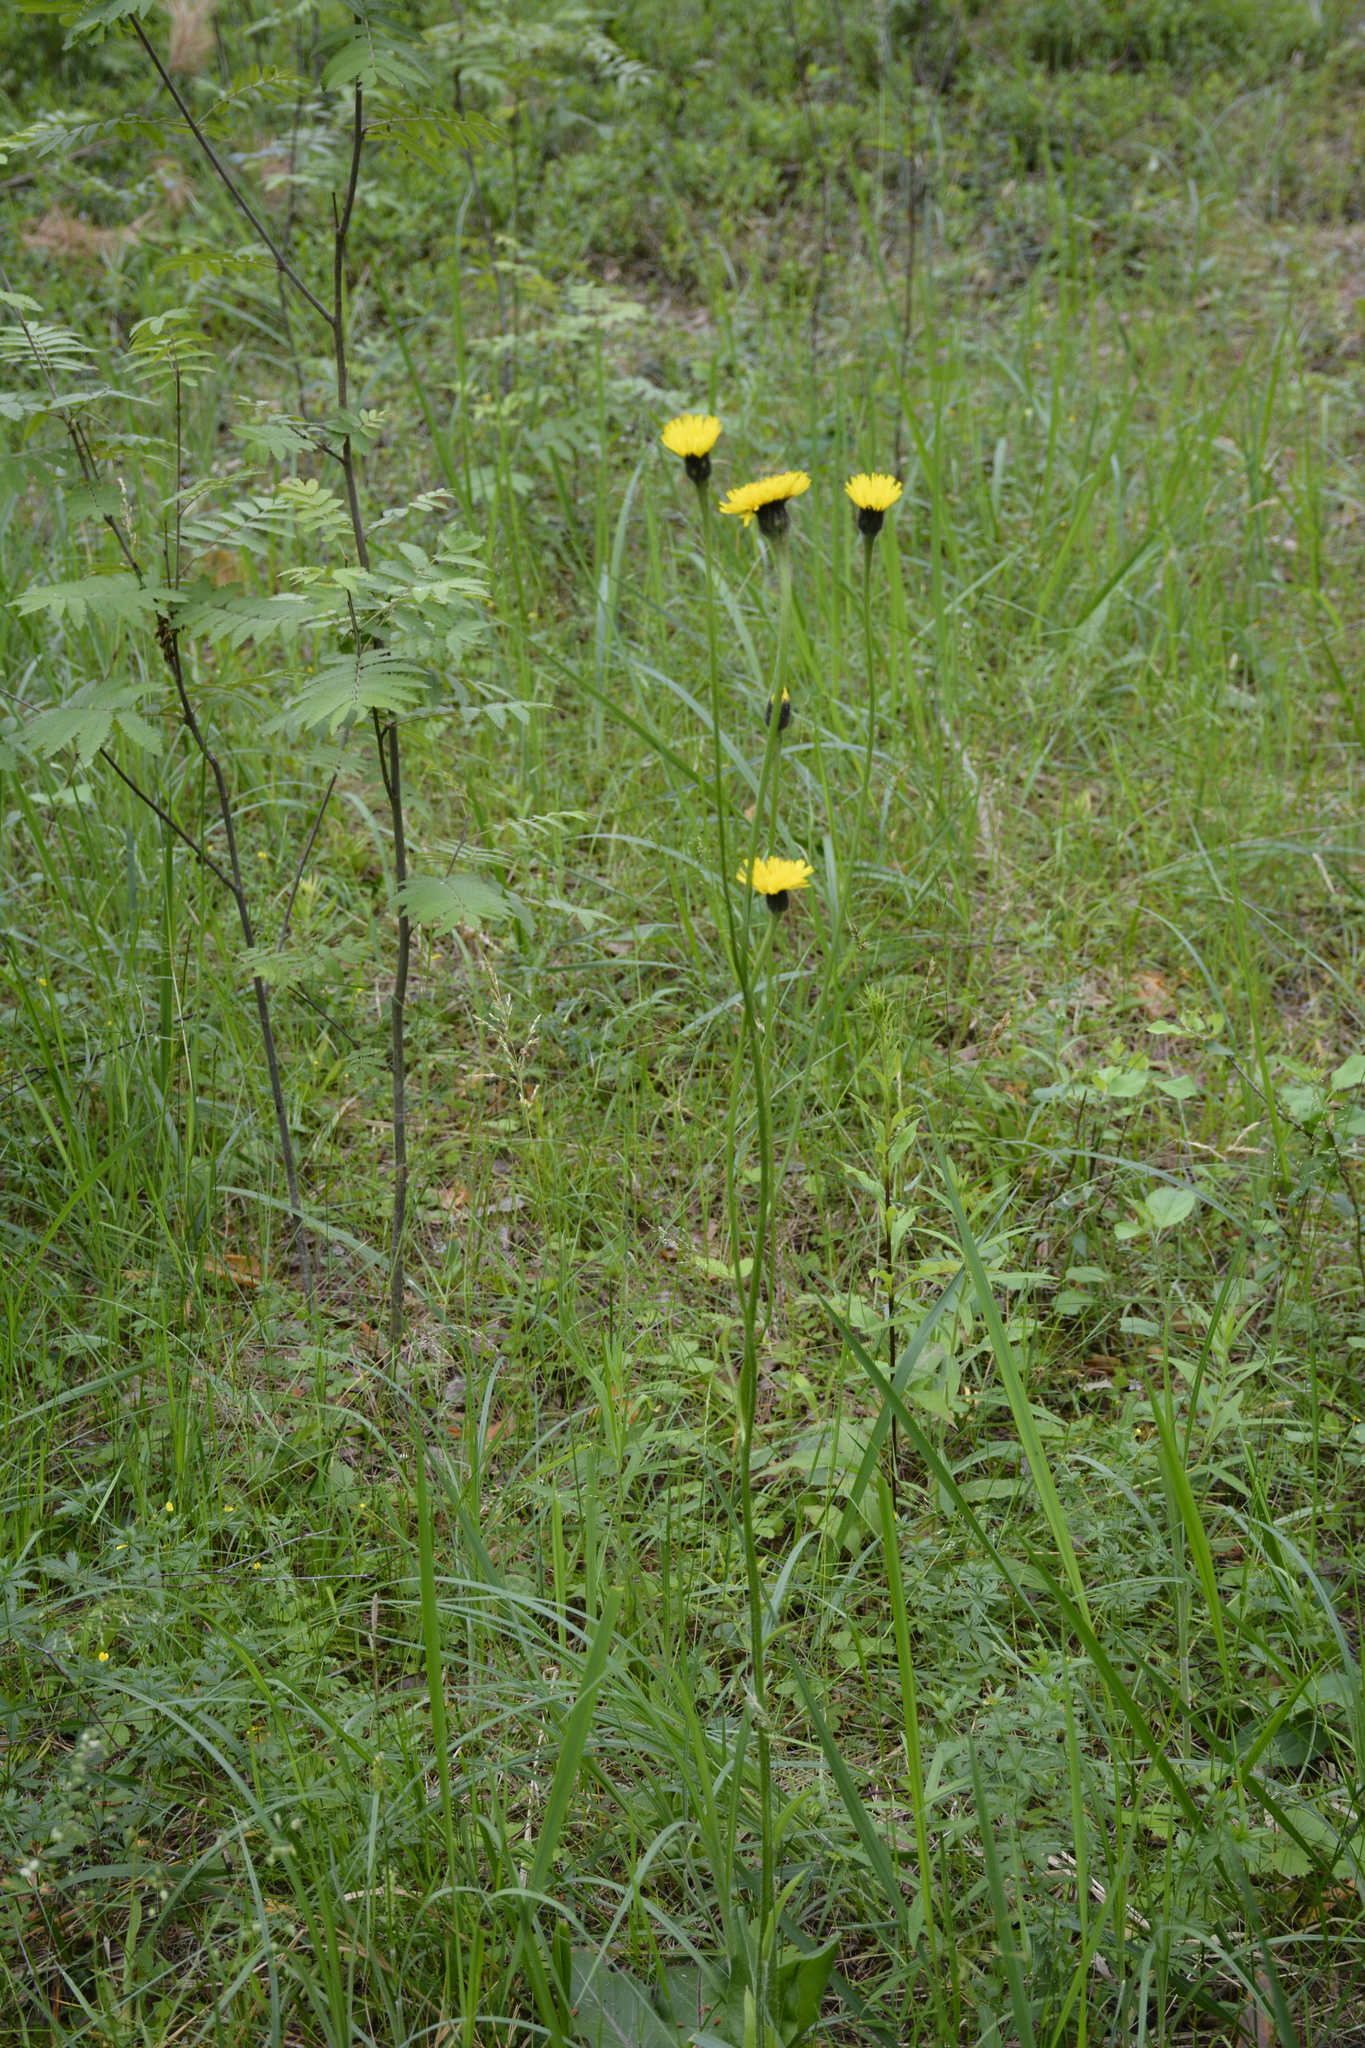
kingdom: Plantae
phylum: Tracheophyta
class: Magnoliopsida
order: Asterales
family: Asteraceae
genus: Trommsdorffia
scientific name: Trommsdorffia maculata
